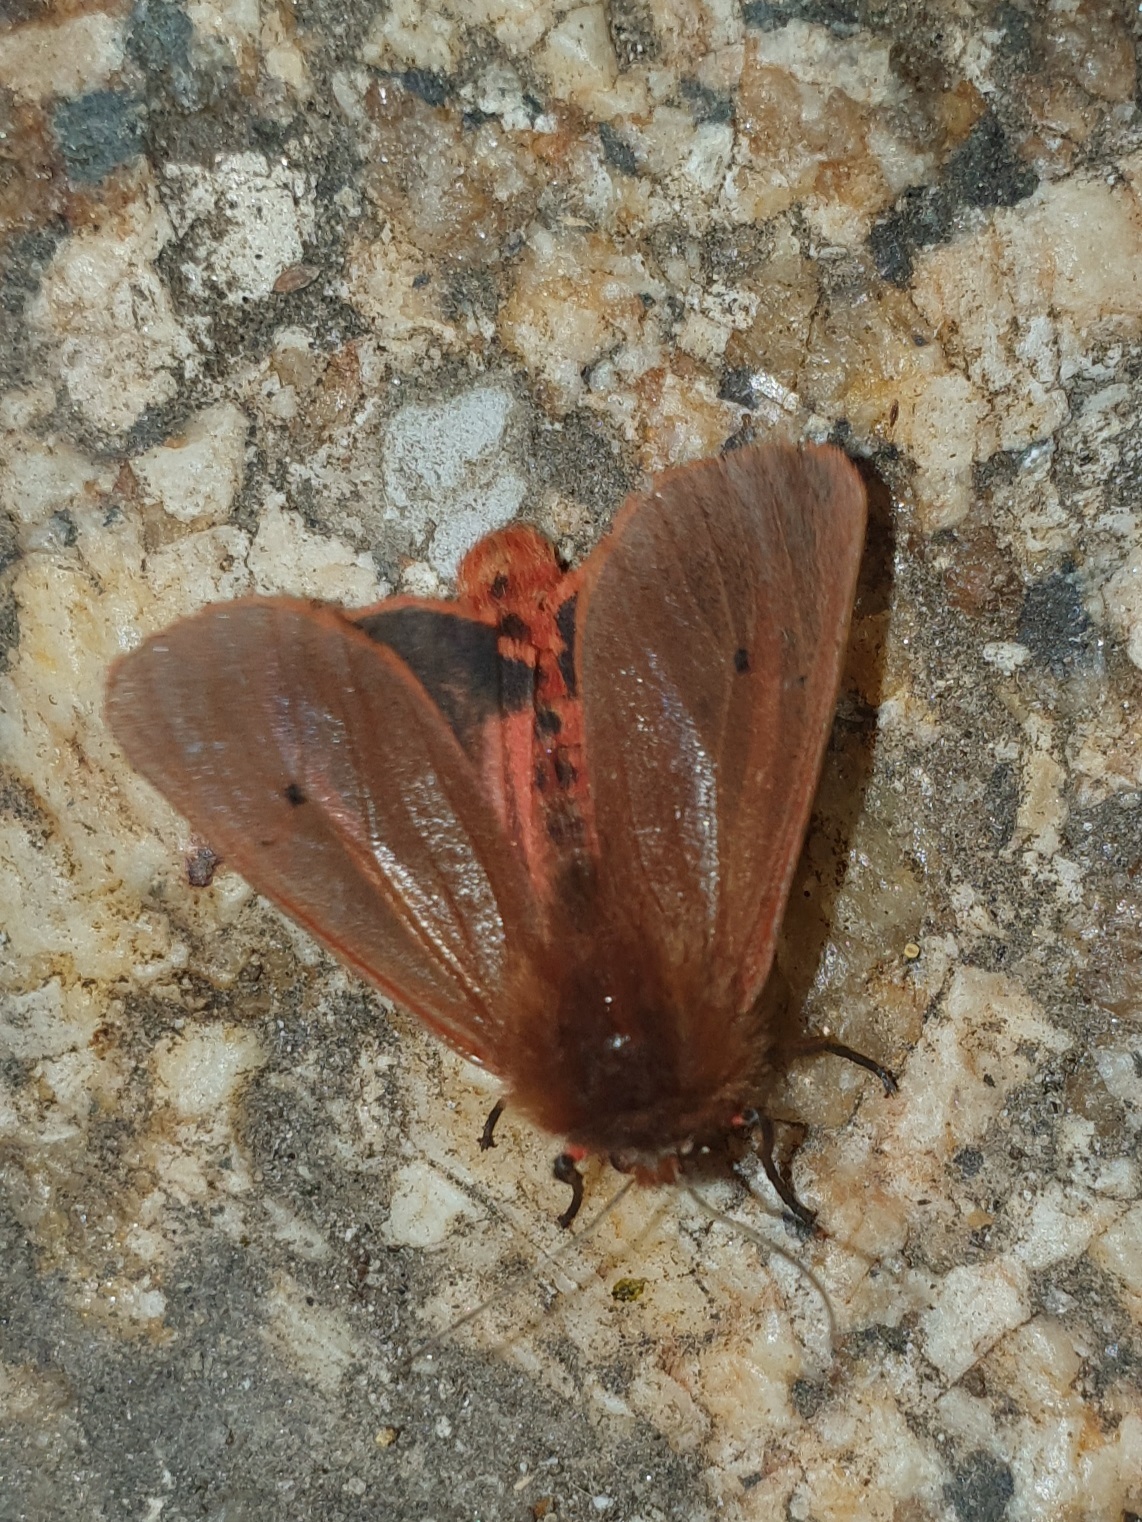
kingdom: Animalia
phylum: Arthropoda
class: Insecta
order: Lepidoptera
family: Erebidae
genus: Phragmatobia
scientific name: Phragmatobia fuliginosa
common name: Ruby tiger
